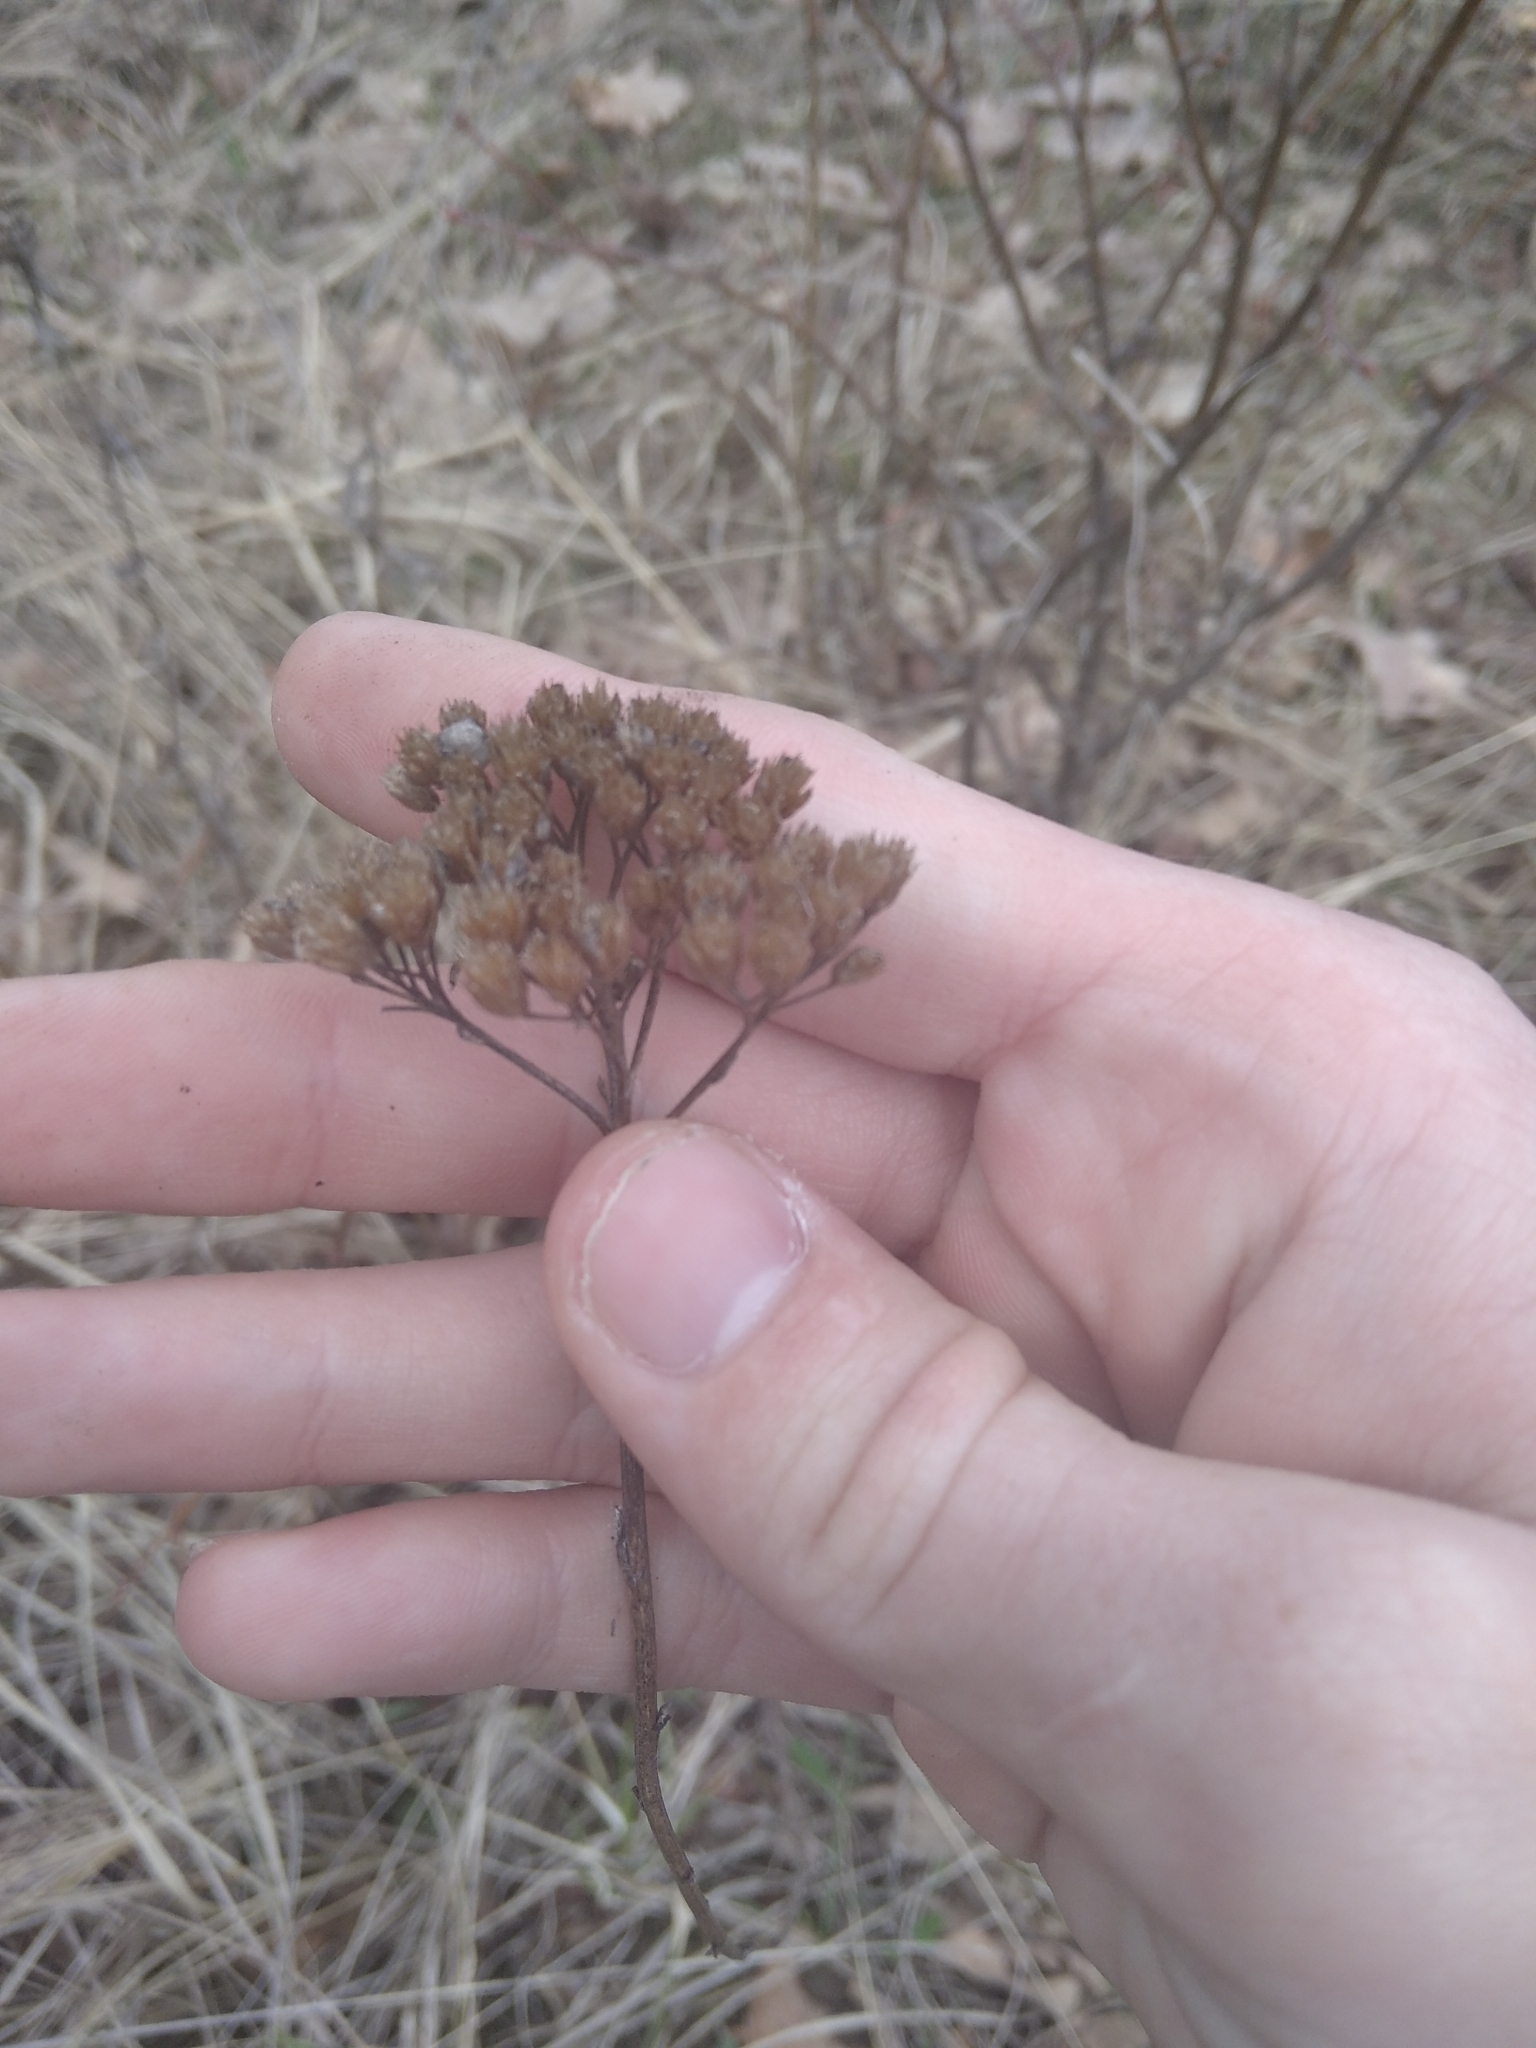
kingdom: Plantae
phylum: Tracheophyta
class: Magnoliopsida
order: Asterales
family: Asteraceae
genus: Achillea
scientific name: Achillea millefolium
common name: Yarrow
